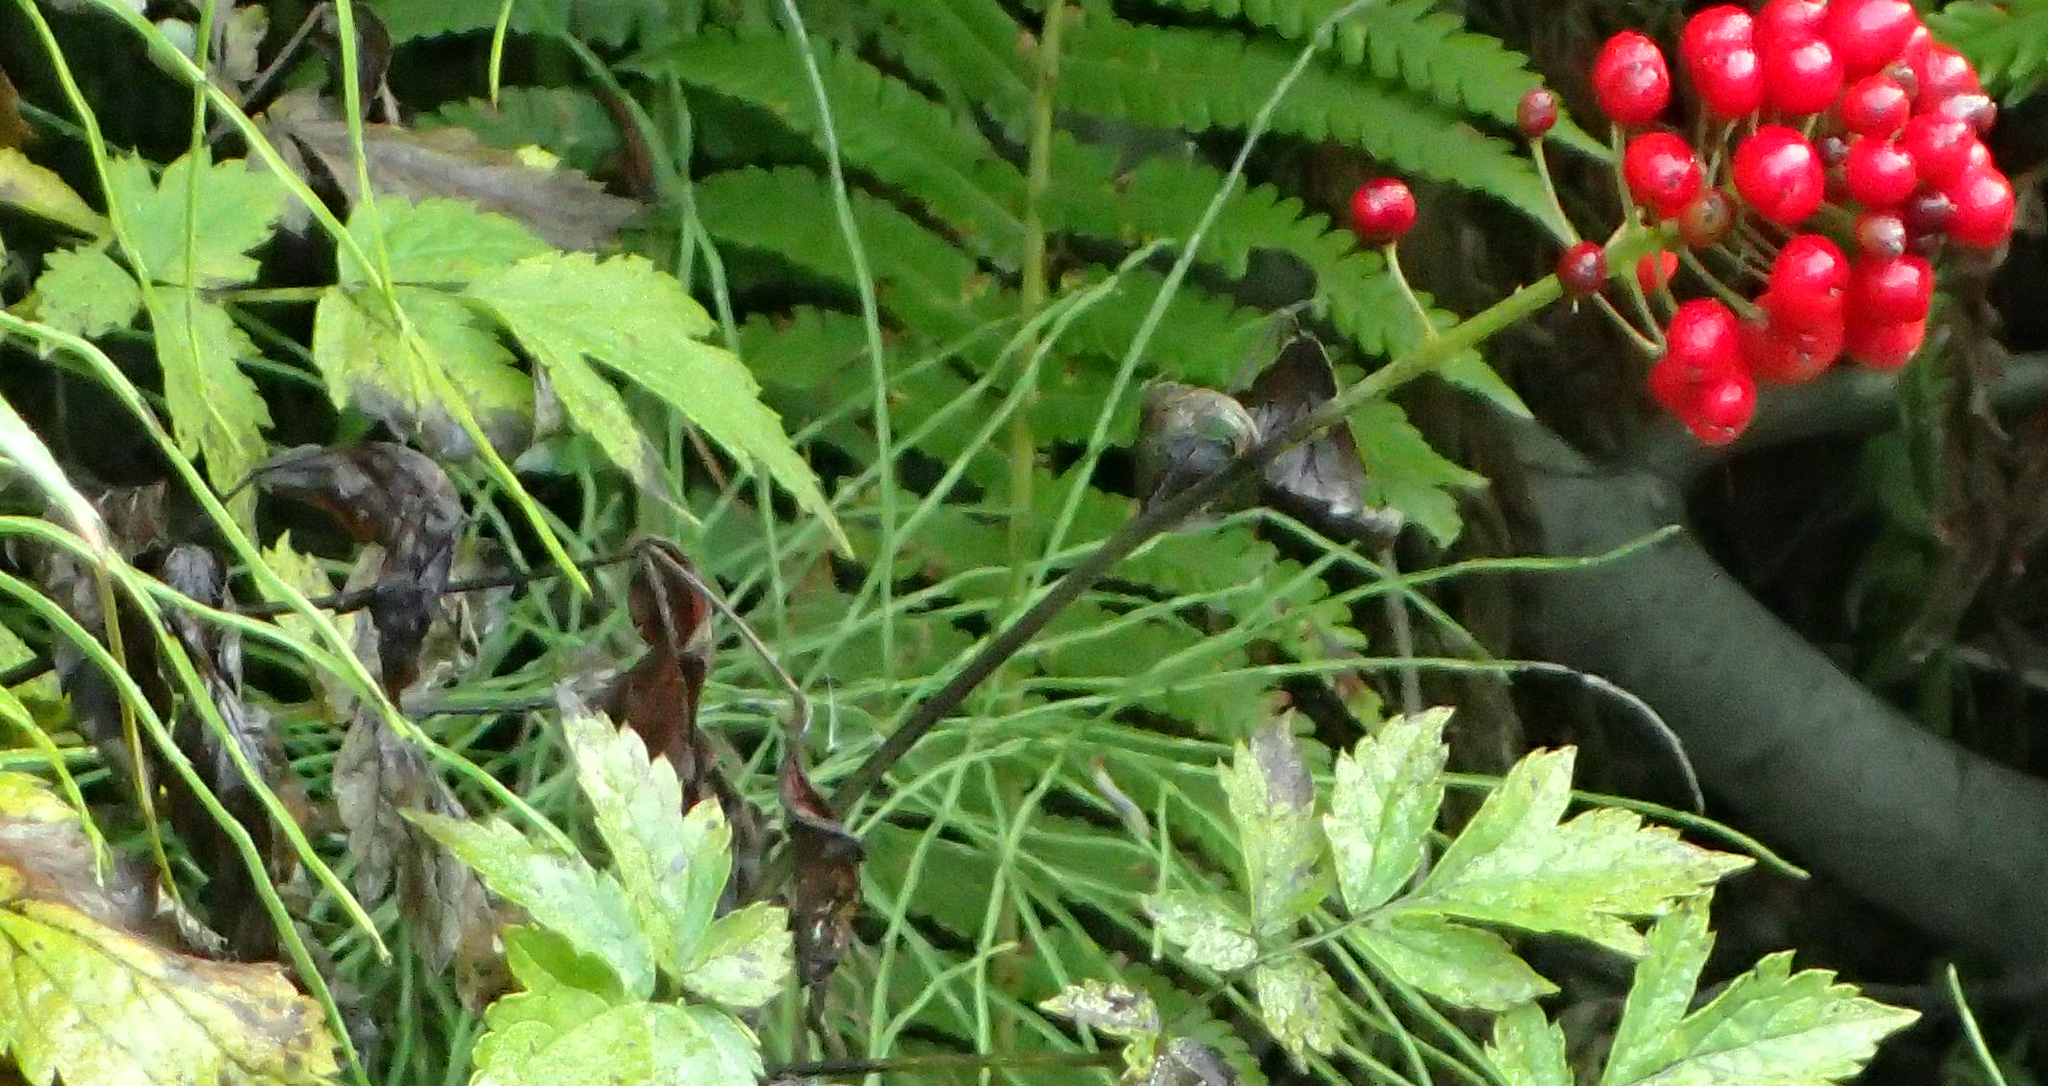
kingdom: Plantae
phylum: Tracheophyta
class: Magnoliopsida
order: Ranunculales
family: Ranunculaceae
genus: Actaea
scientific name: Actaea rubra
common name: Red baneberry
